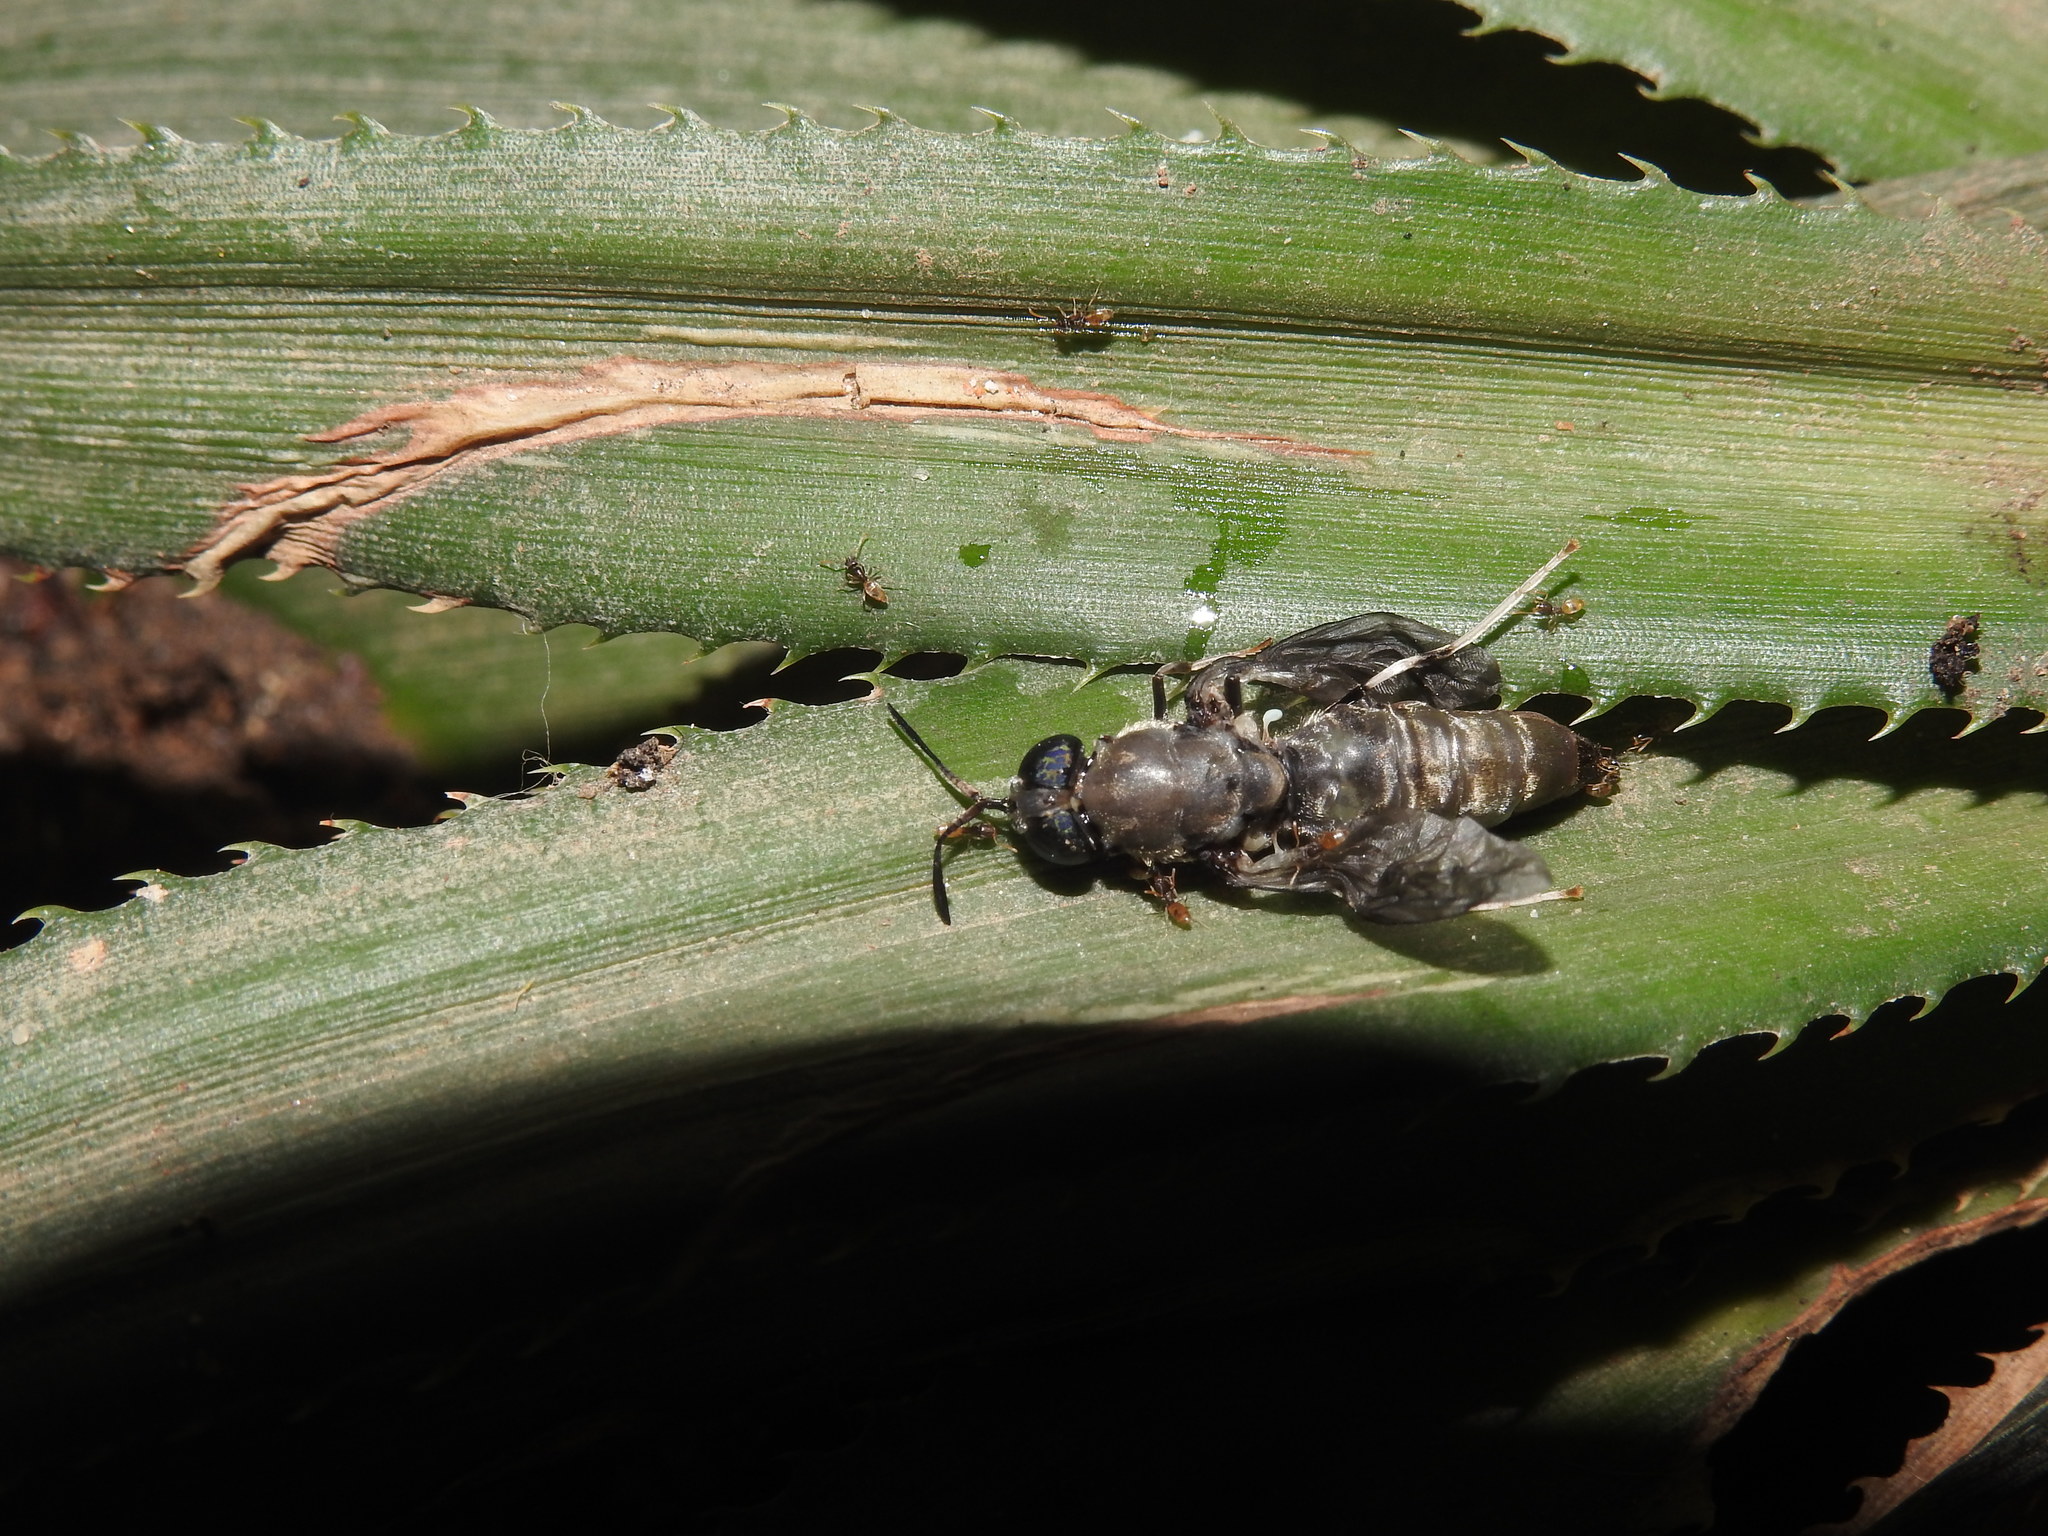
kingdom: Animalia
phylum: Arthropoda
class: Insecta
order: Diptera
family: Stratiomyidae
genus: Hermetia
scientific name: Hermetia illucens
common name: Black soldier fly
